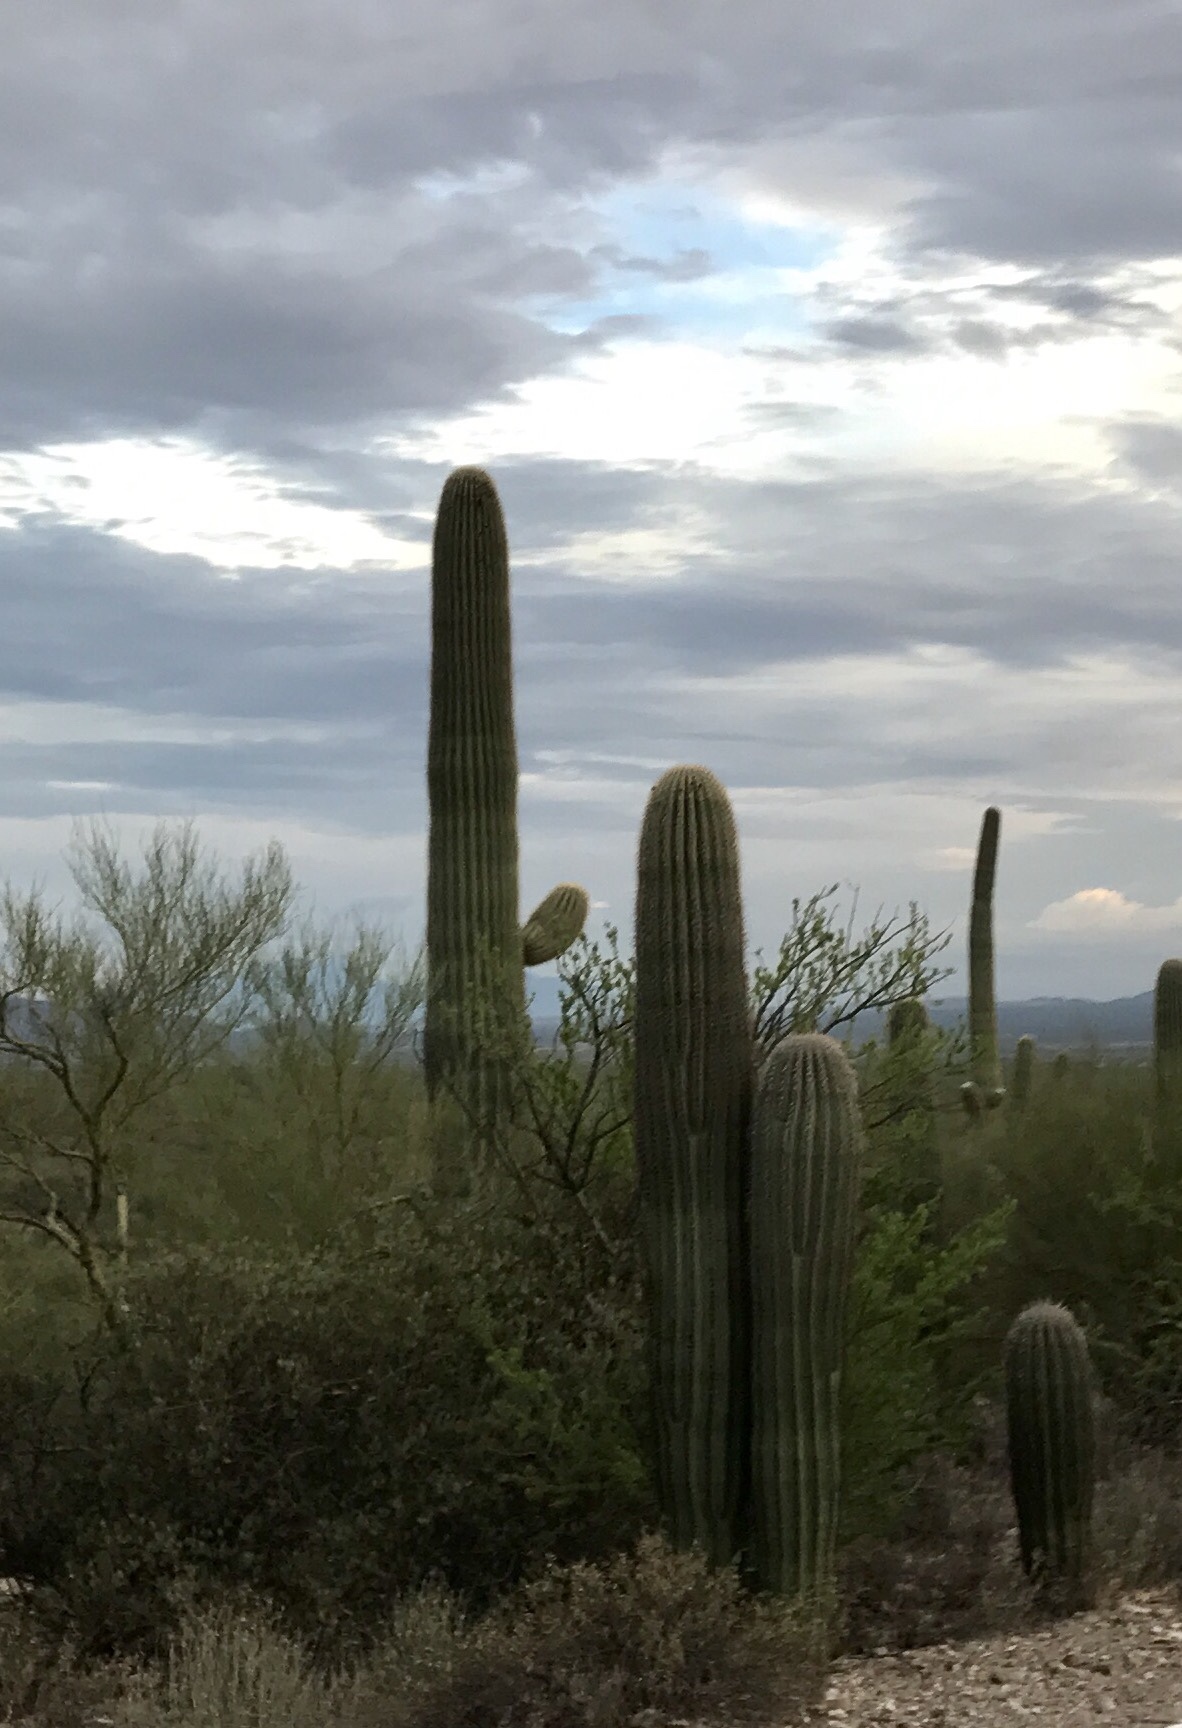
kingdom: Plantae
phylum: Tracheophyta
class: Magnoliopsida
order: Caryophyllales
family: Cactaceae
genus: Carnegiea
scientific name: Carnegiea gigantea
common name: Saguaro
